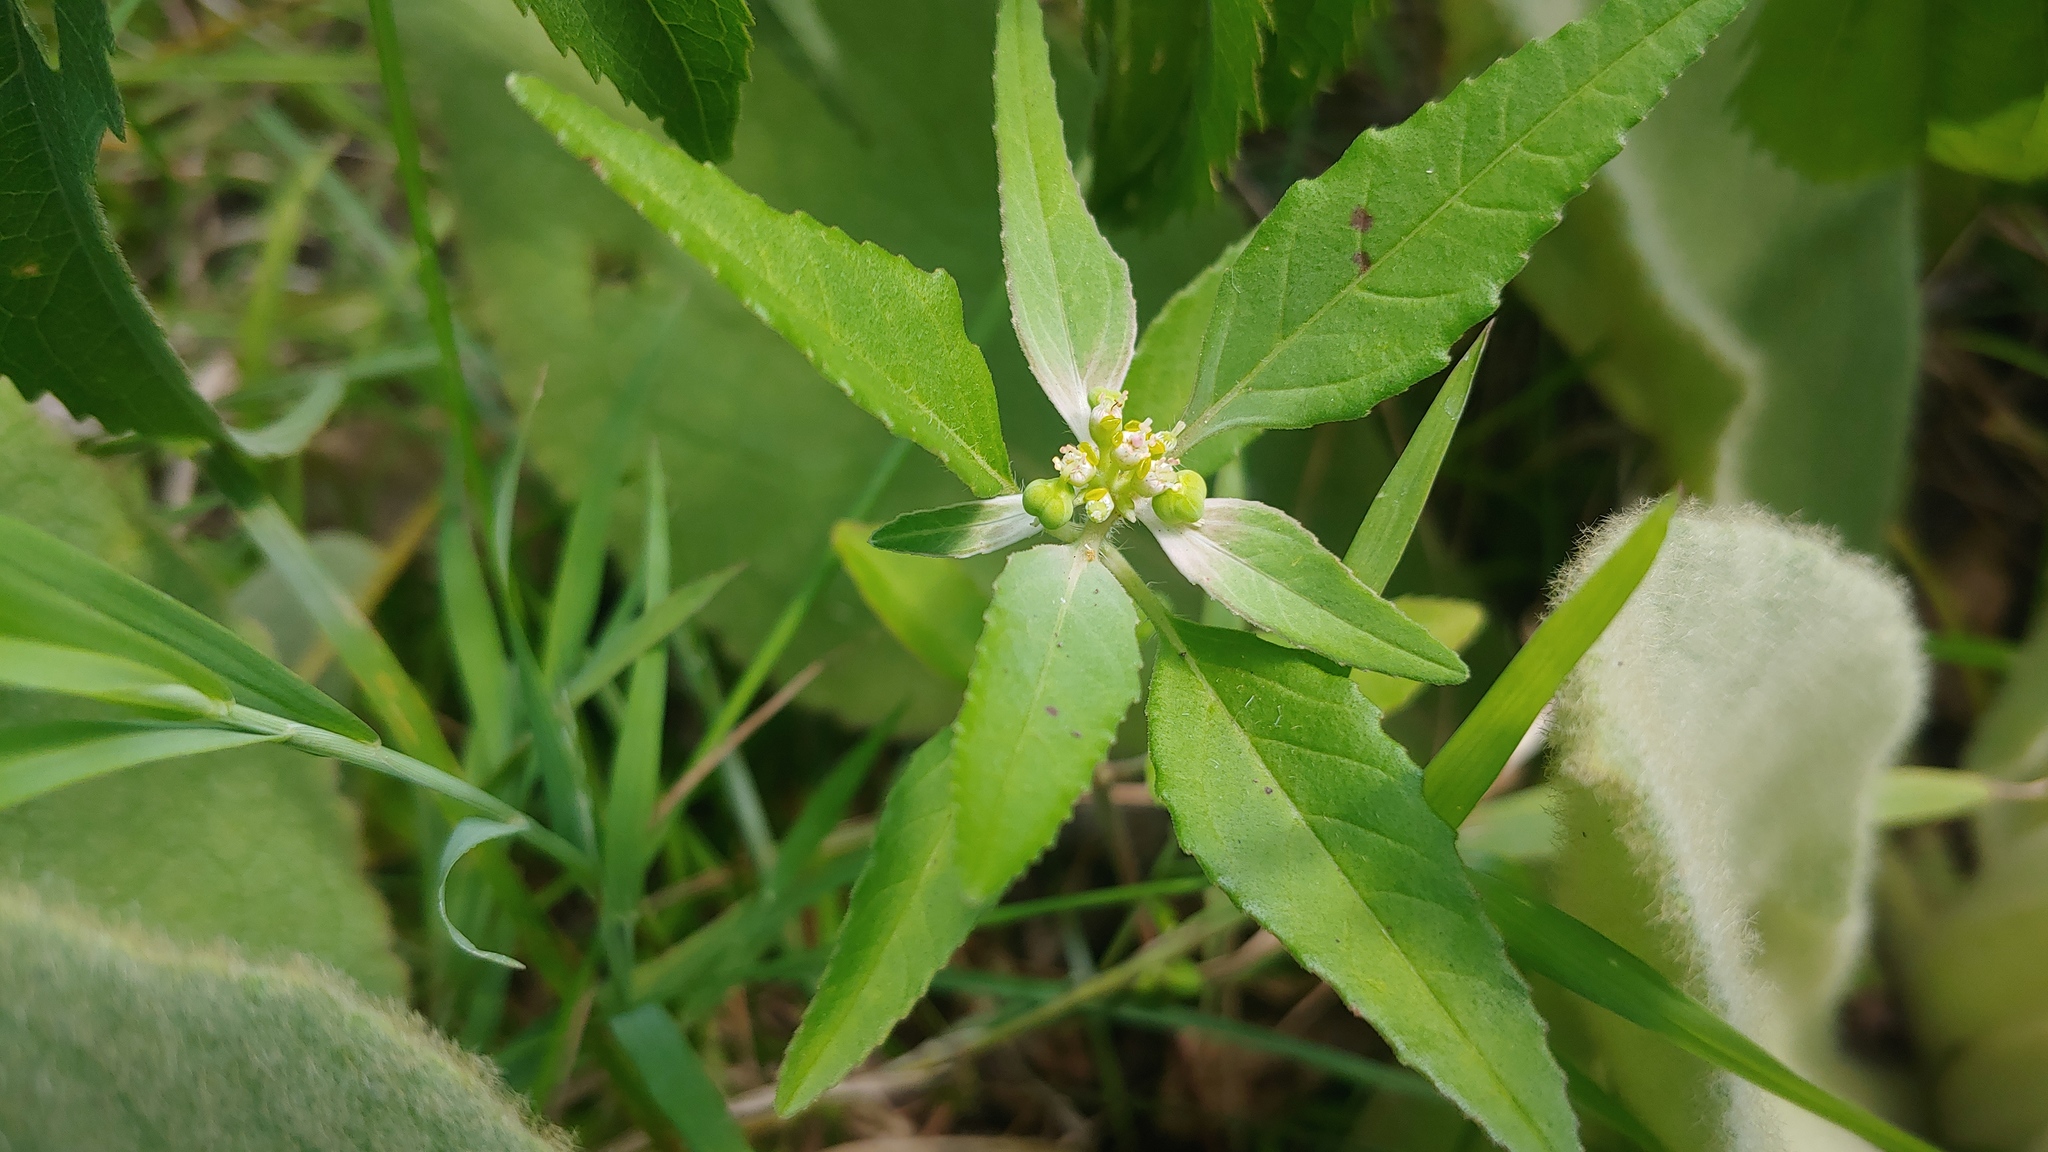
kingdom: Plantae
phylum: Tracheophyta
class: Magnoliopsida
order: Malpighiales
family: Euphorbiaceae
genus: Euphorbia
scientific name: Euphorbia dentata
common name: Dentate spurge
